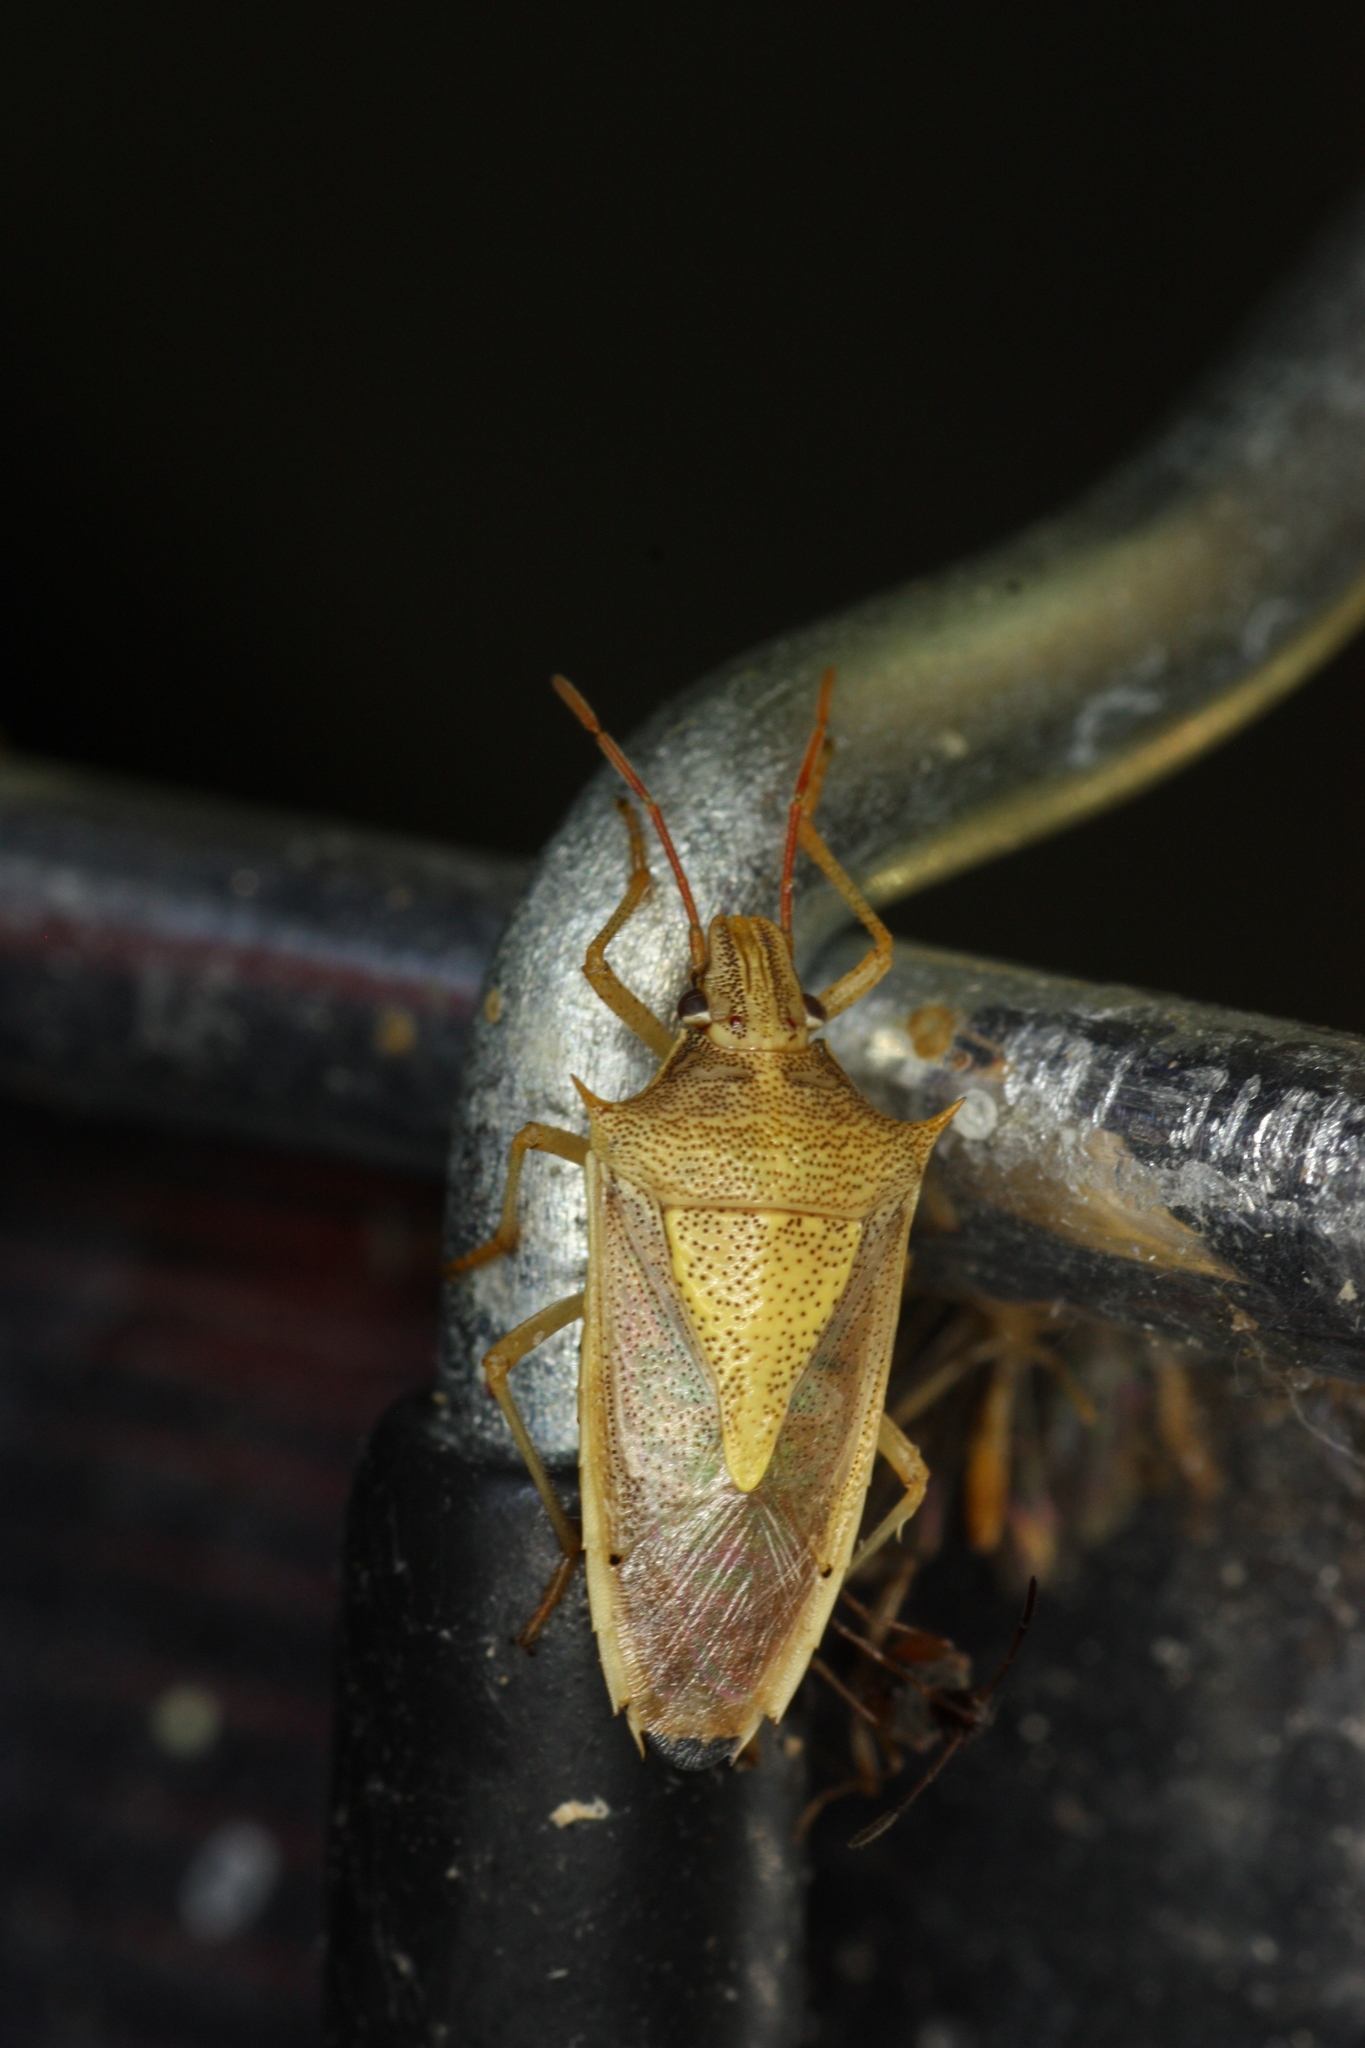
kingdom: Animalia
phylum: Arthropoda
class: Insecta
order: Hemiptera
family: Pentatomidae
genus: Oebalus
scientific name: Oebalus pugnax
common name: Rice stink bug
